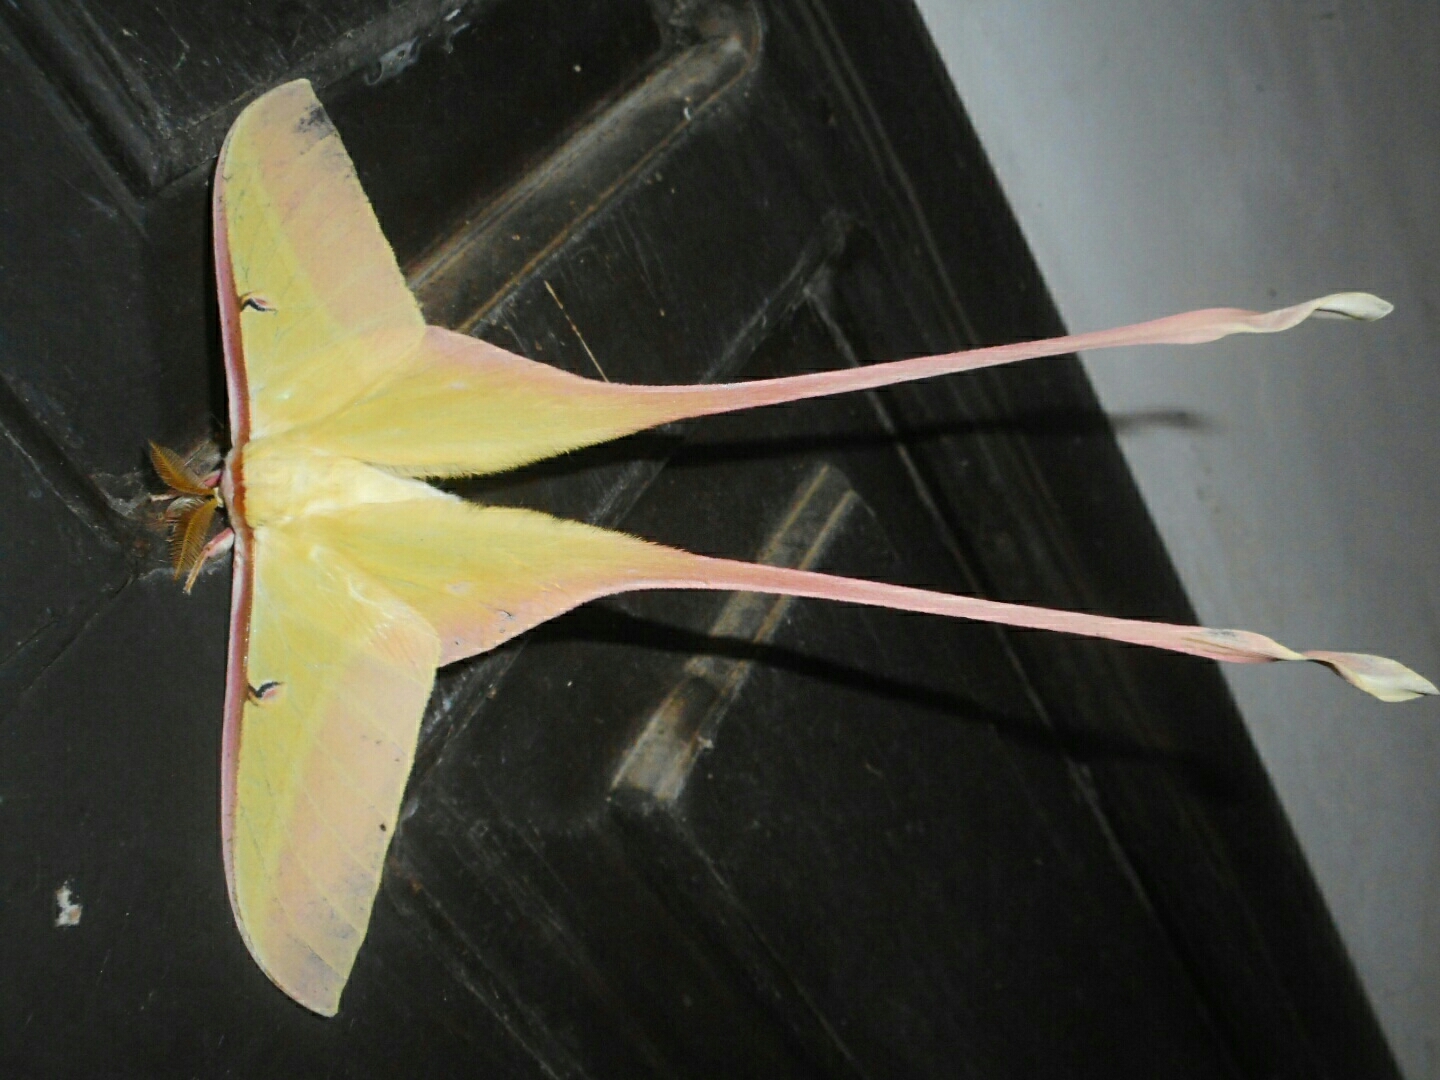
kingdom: Animalia
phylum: Arthropoda
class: Insecta
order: Lepidoptera
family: Saturniidae
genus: Actias
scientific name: Actias dubernardi
